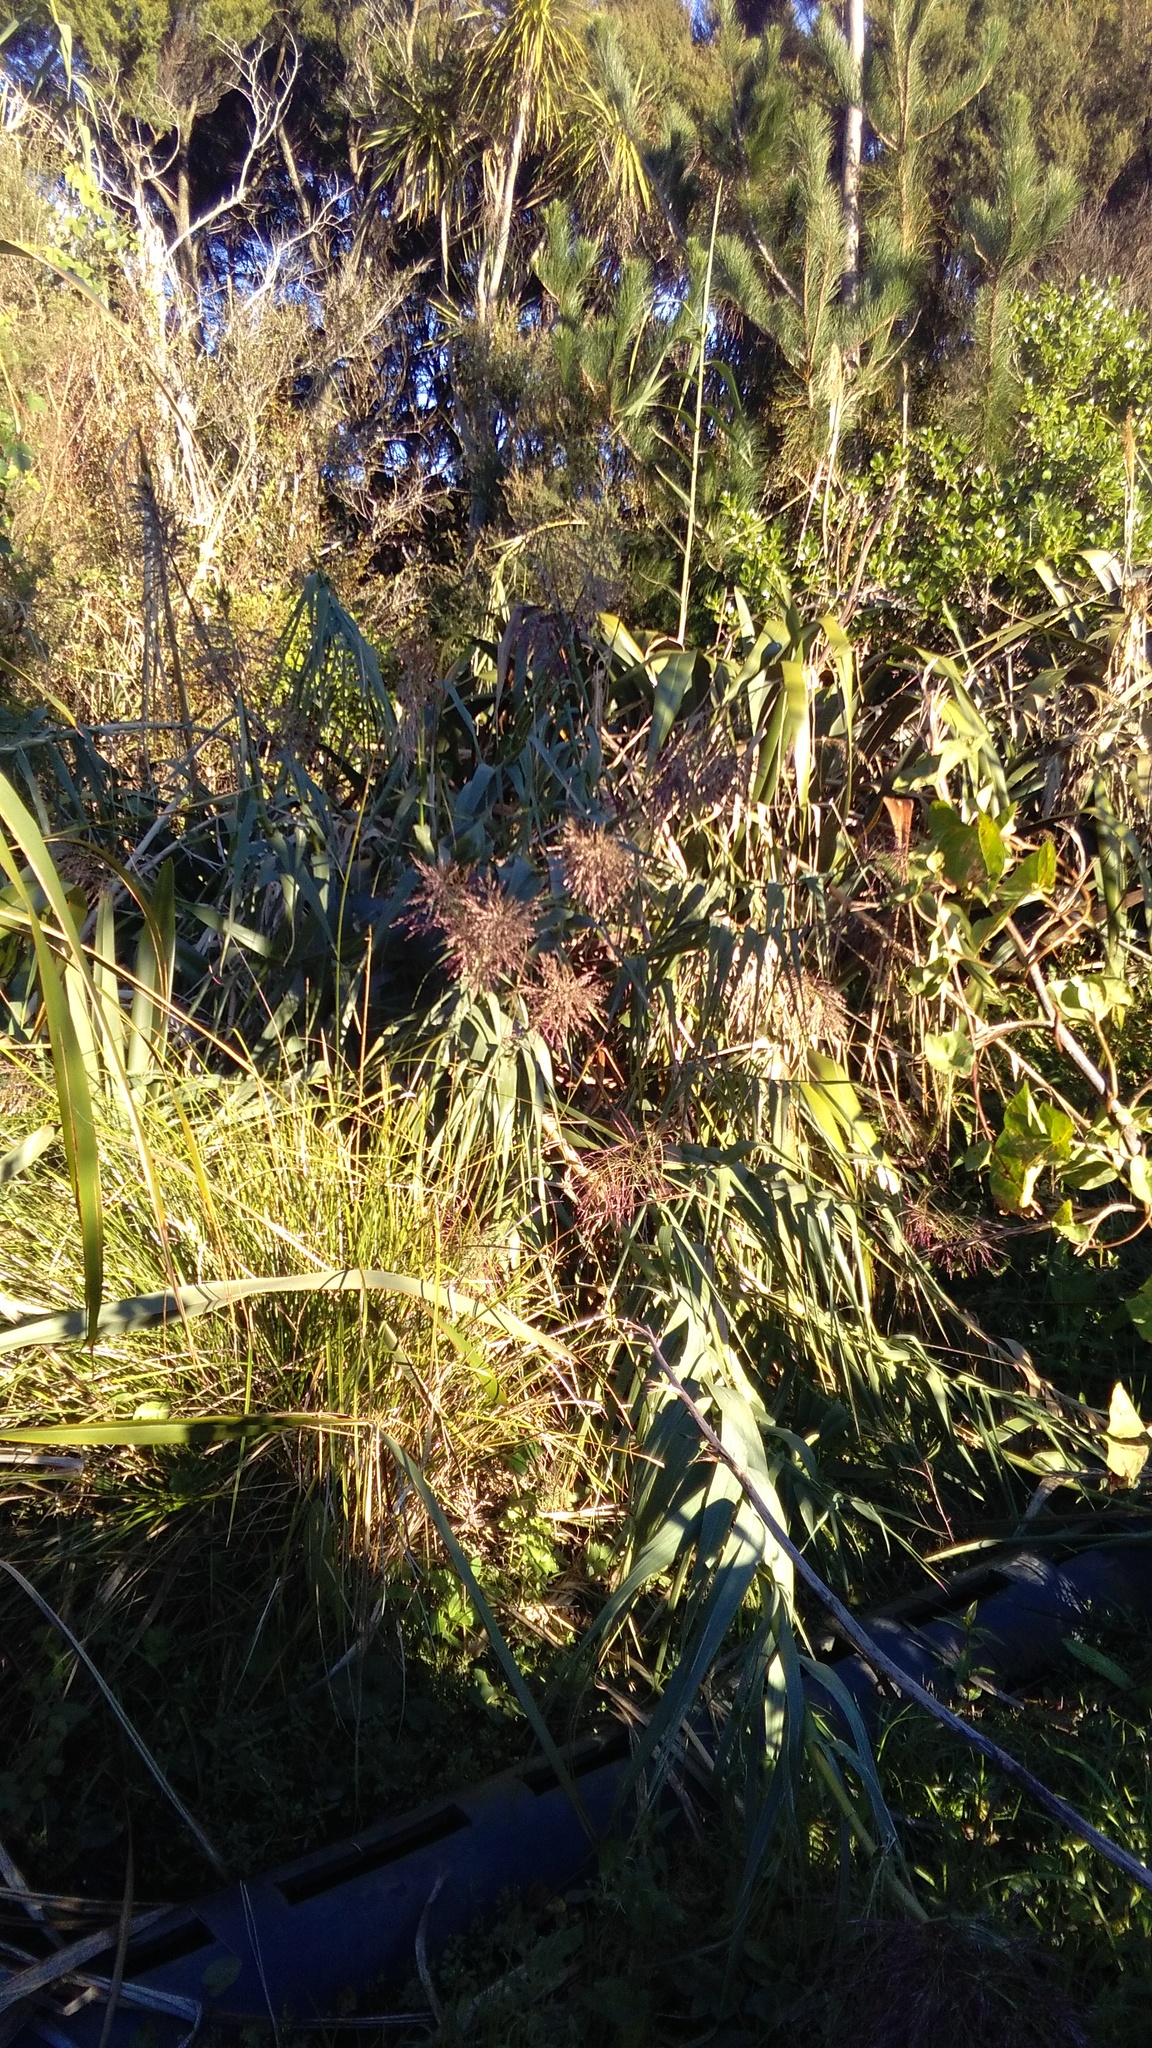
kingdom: Plantae
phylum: Tracheophyta
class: Pinopsida
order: Pinales
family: Pinaceae
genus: Pinus
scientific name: Pinus radiata
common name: Monterey pine
